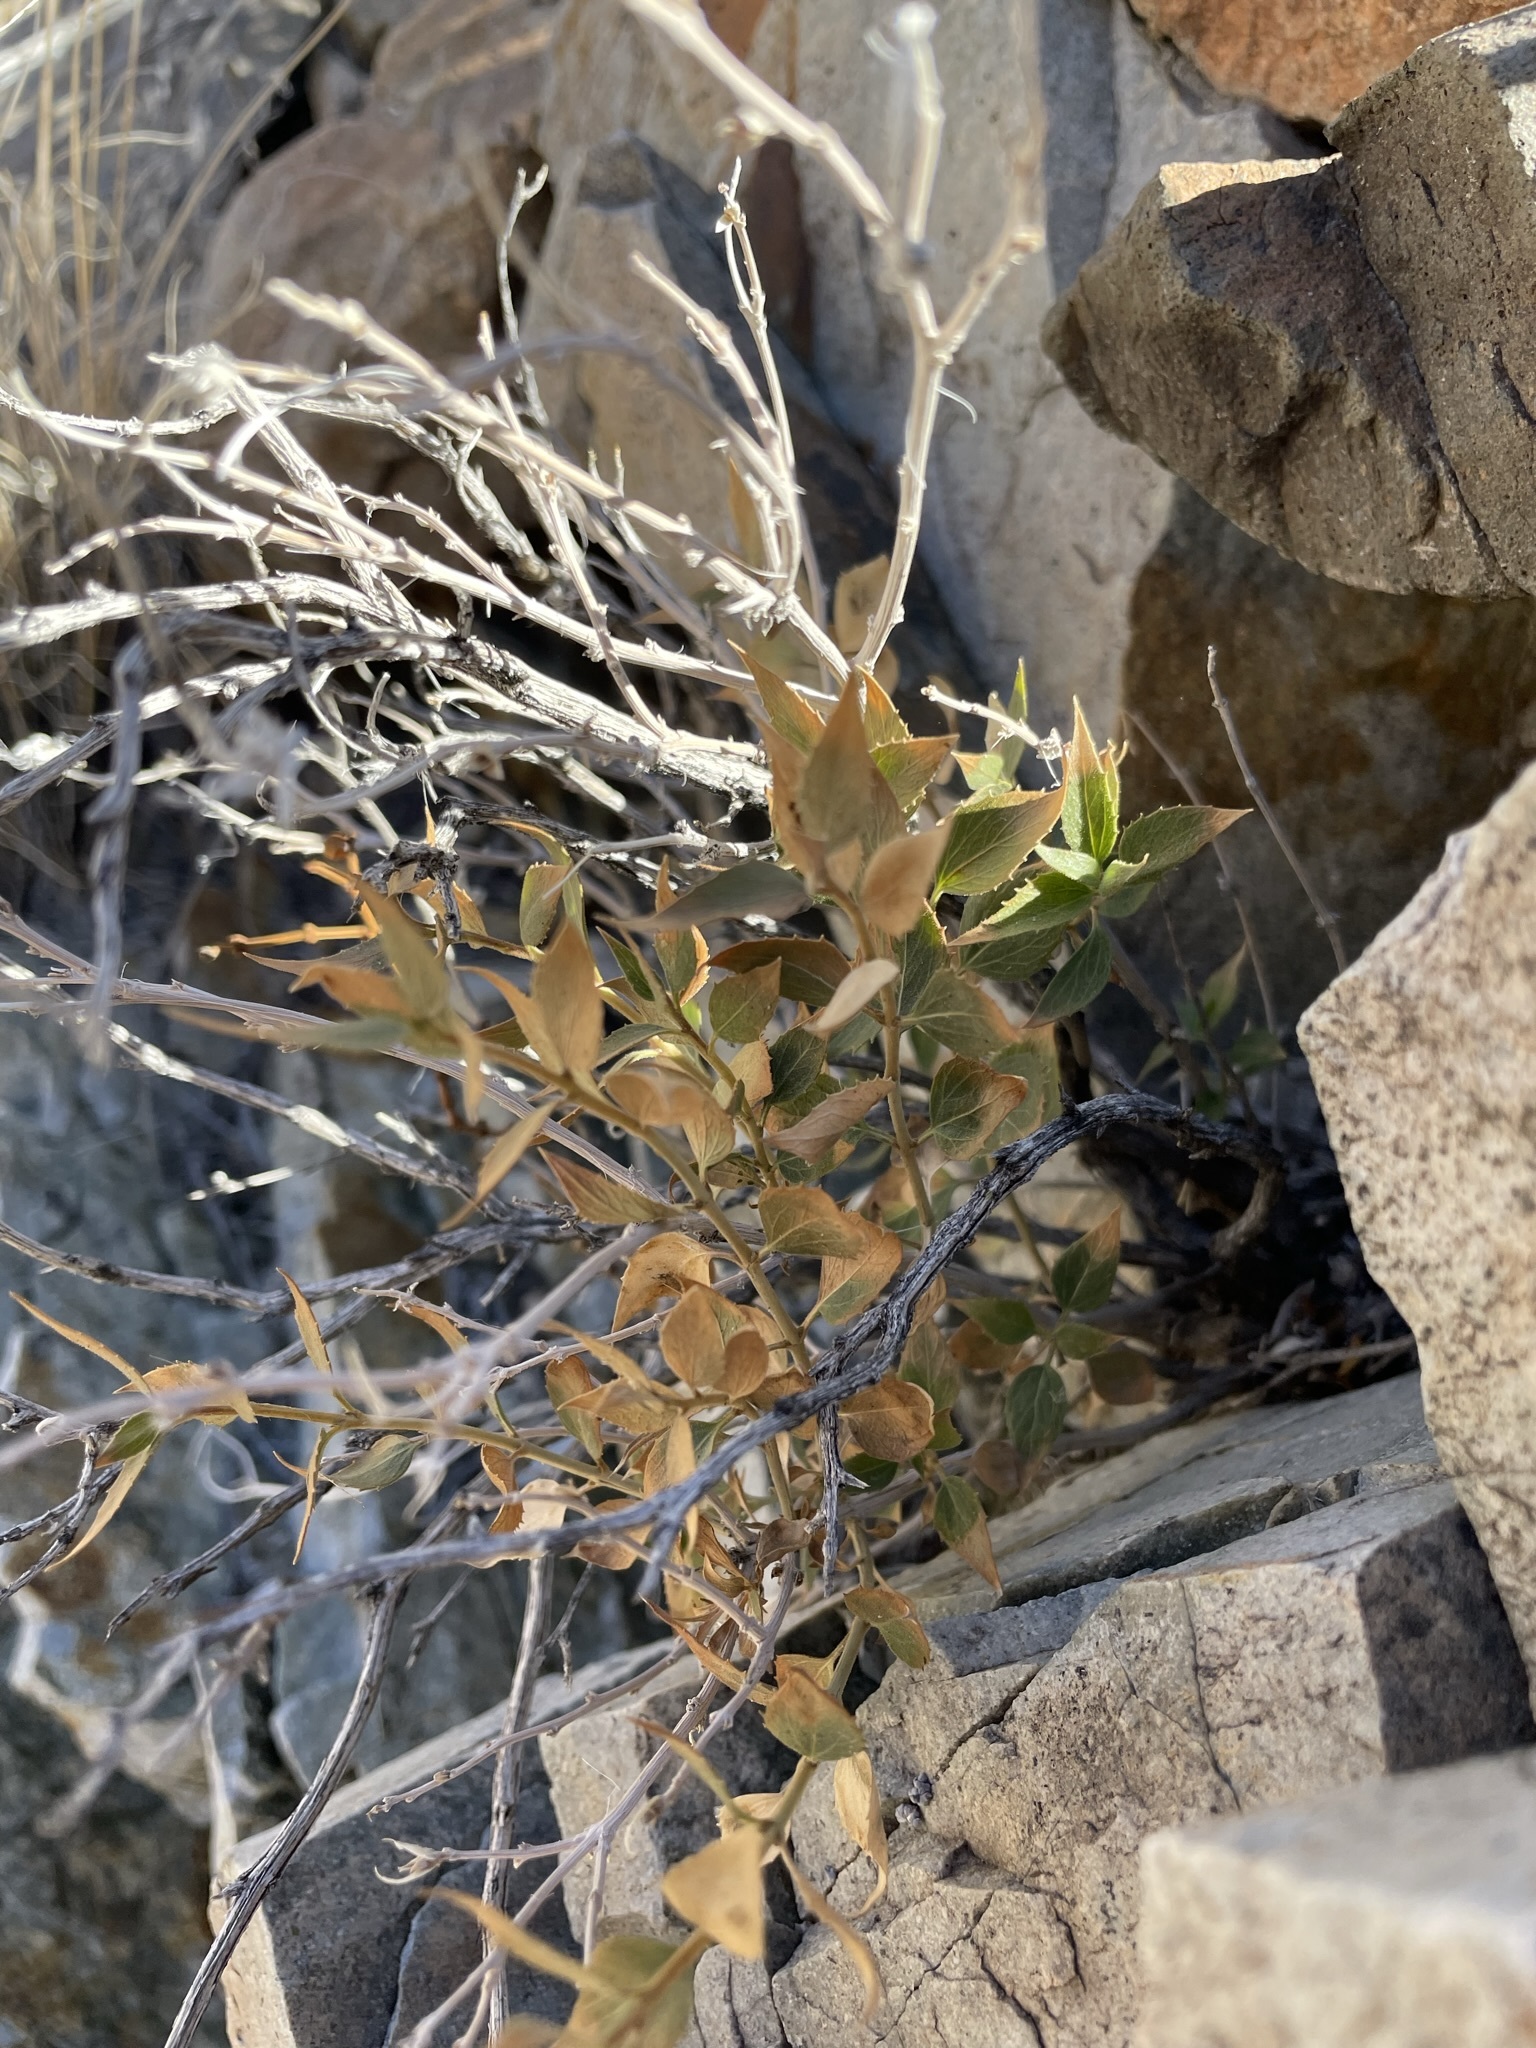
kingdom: Plantae
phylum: Tracheophyta
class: Magnoliopsida
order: Asterales
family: Asteraceae
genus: Brickellia
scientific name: Brickellia atractyloides
